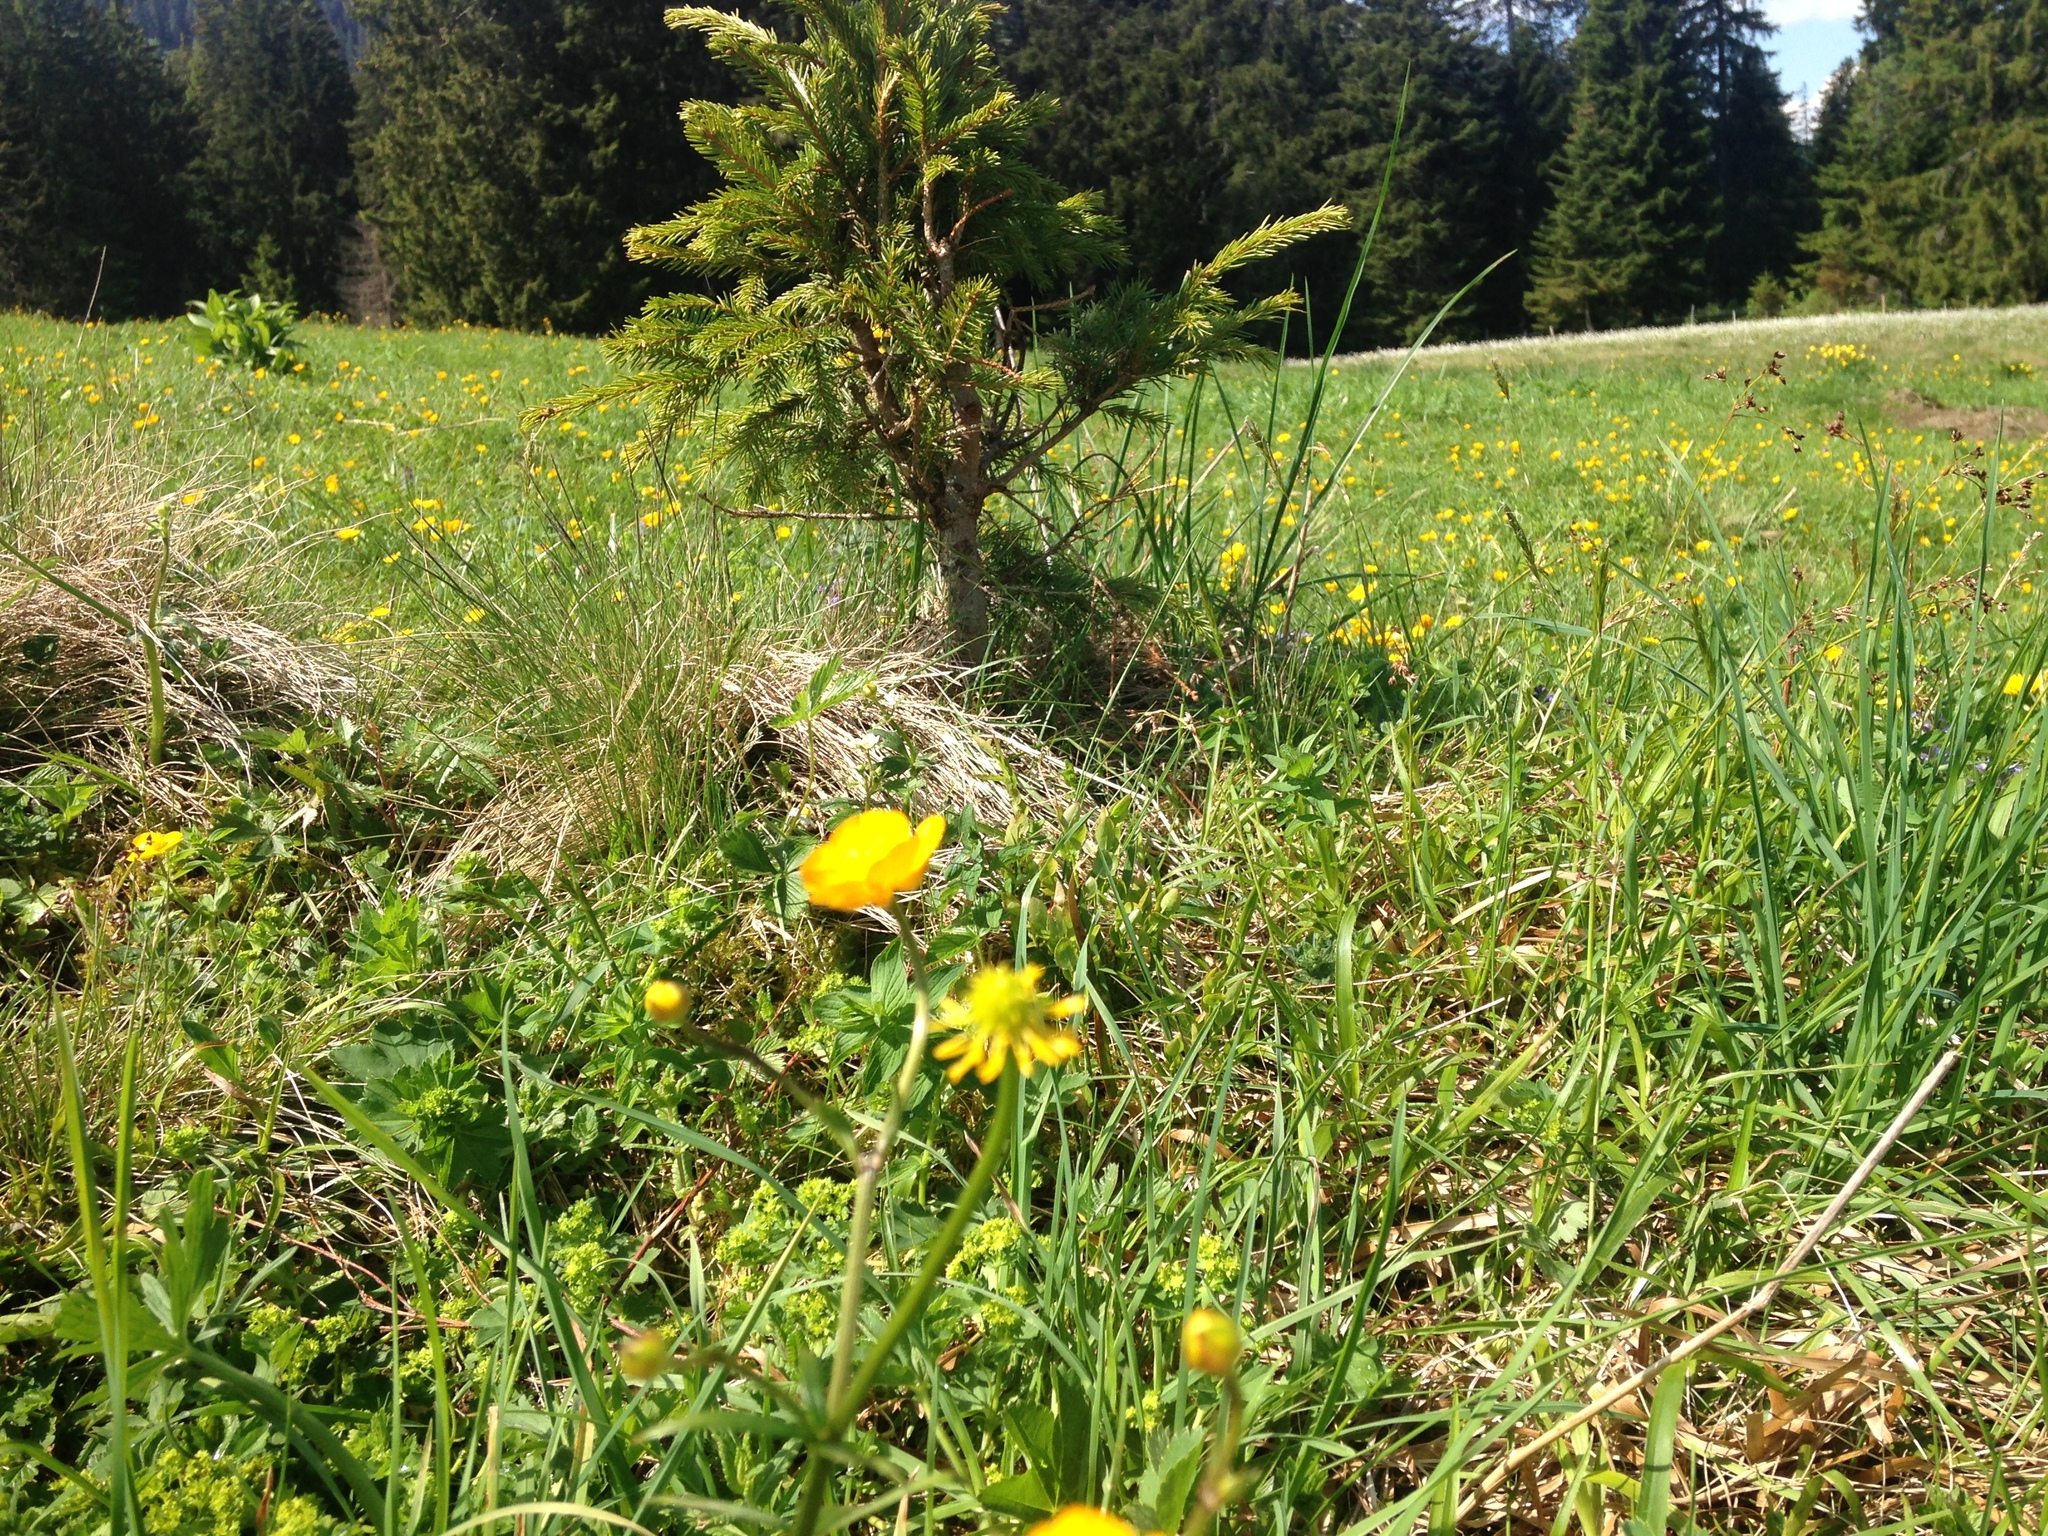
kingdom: Plantae
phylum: Tracheophyta
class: Pinopsida
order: Pinales
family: Pinaceae
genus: Picea
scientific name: Picea abies
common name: Norway spruce
